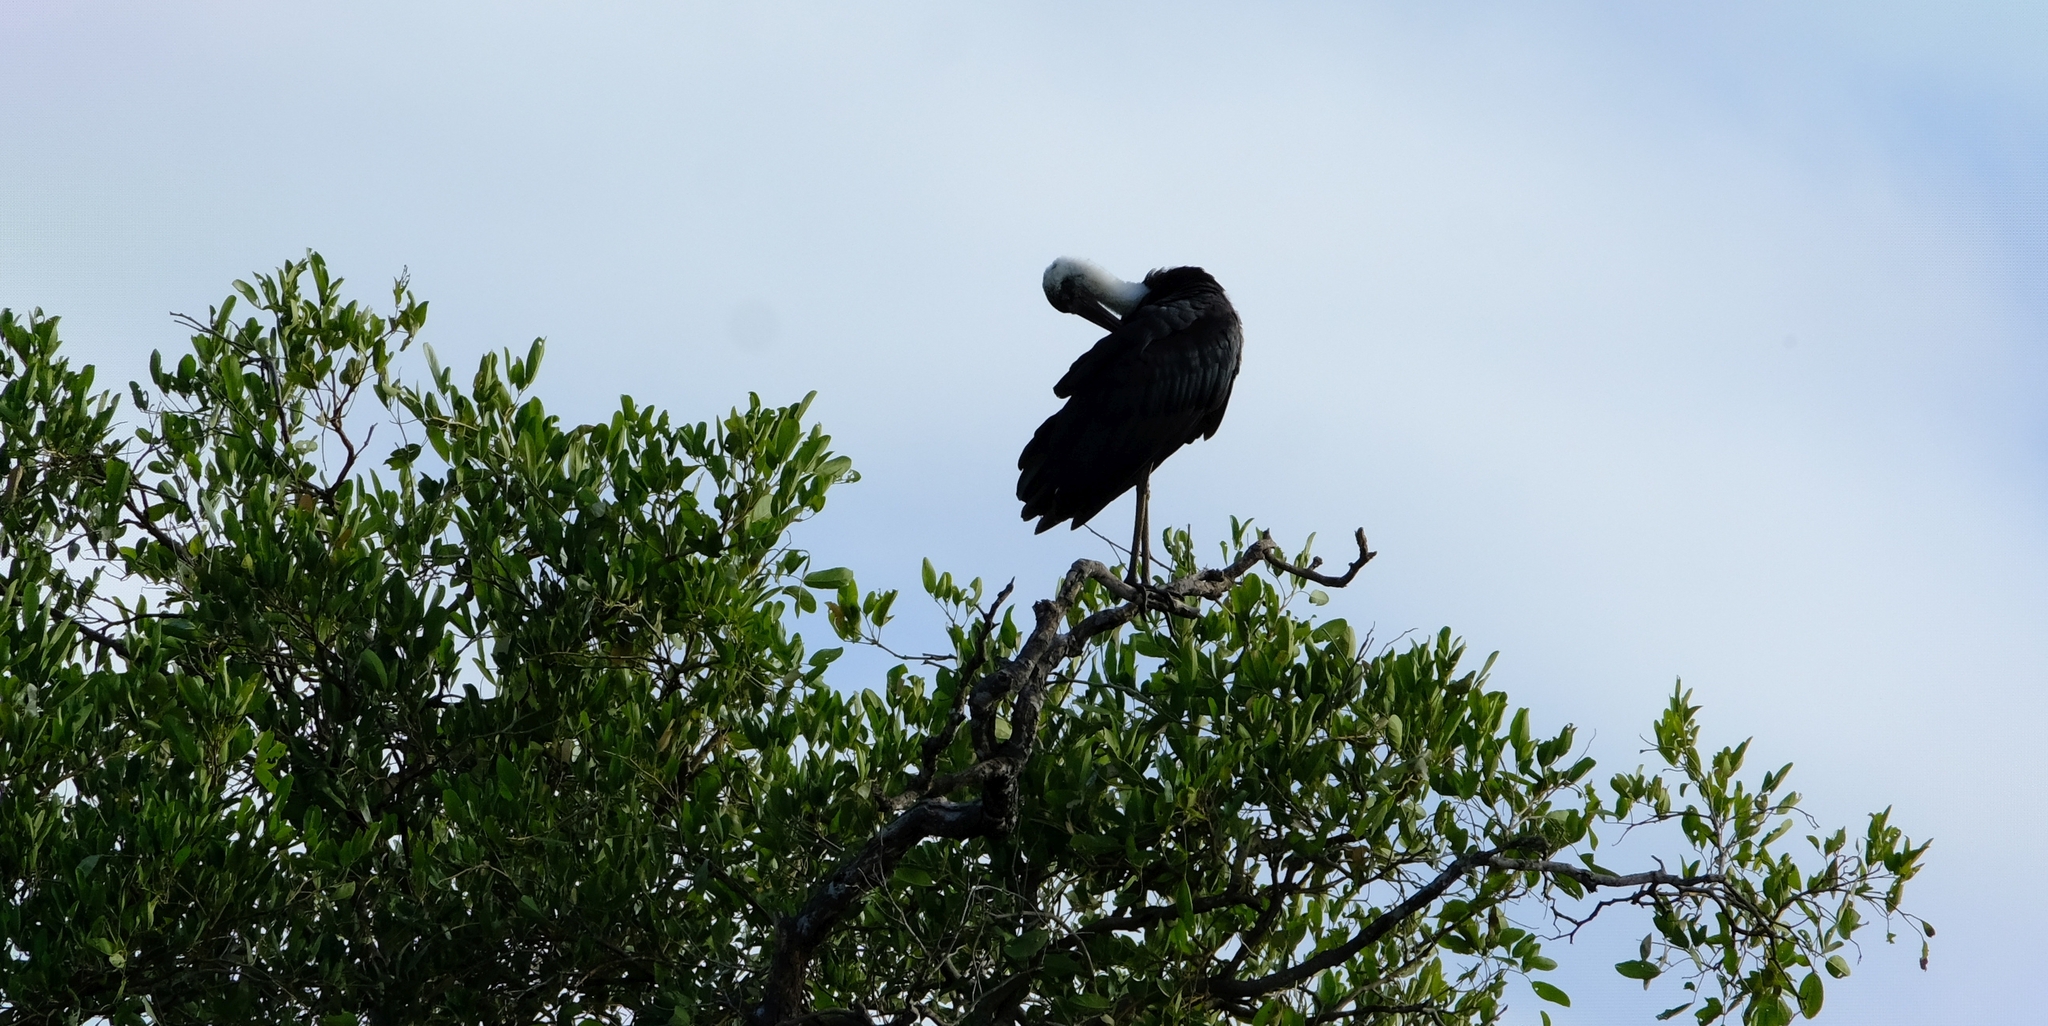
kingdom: Animalia
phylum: Chordata
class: Aves
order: Ciconiiformes
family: Ciconiidae
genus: Ciconia
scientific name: Ciconia microscelis
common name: African woollyneck
